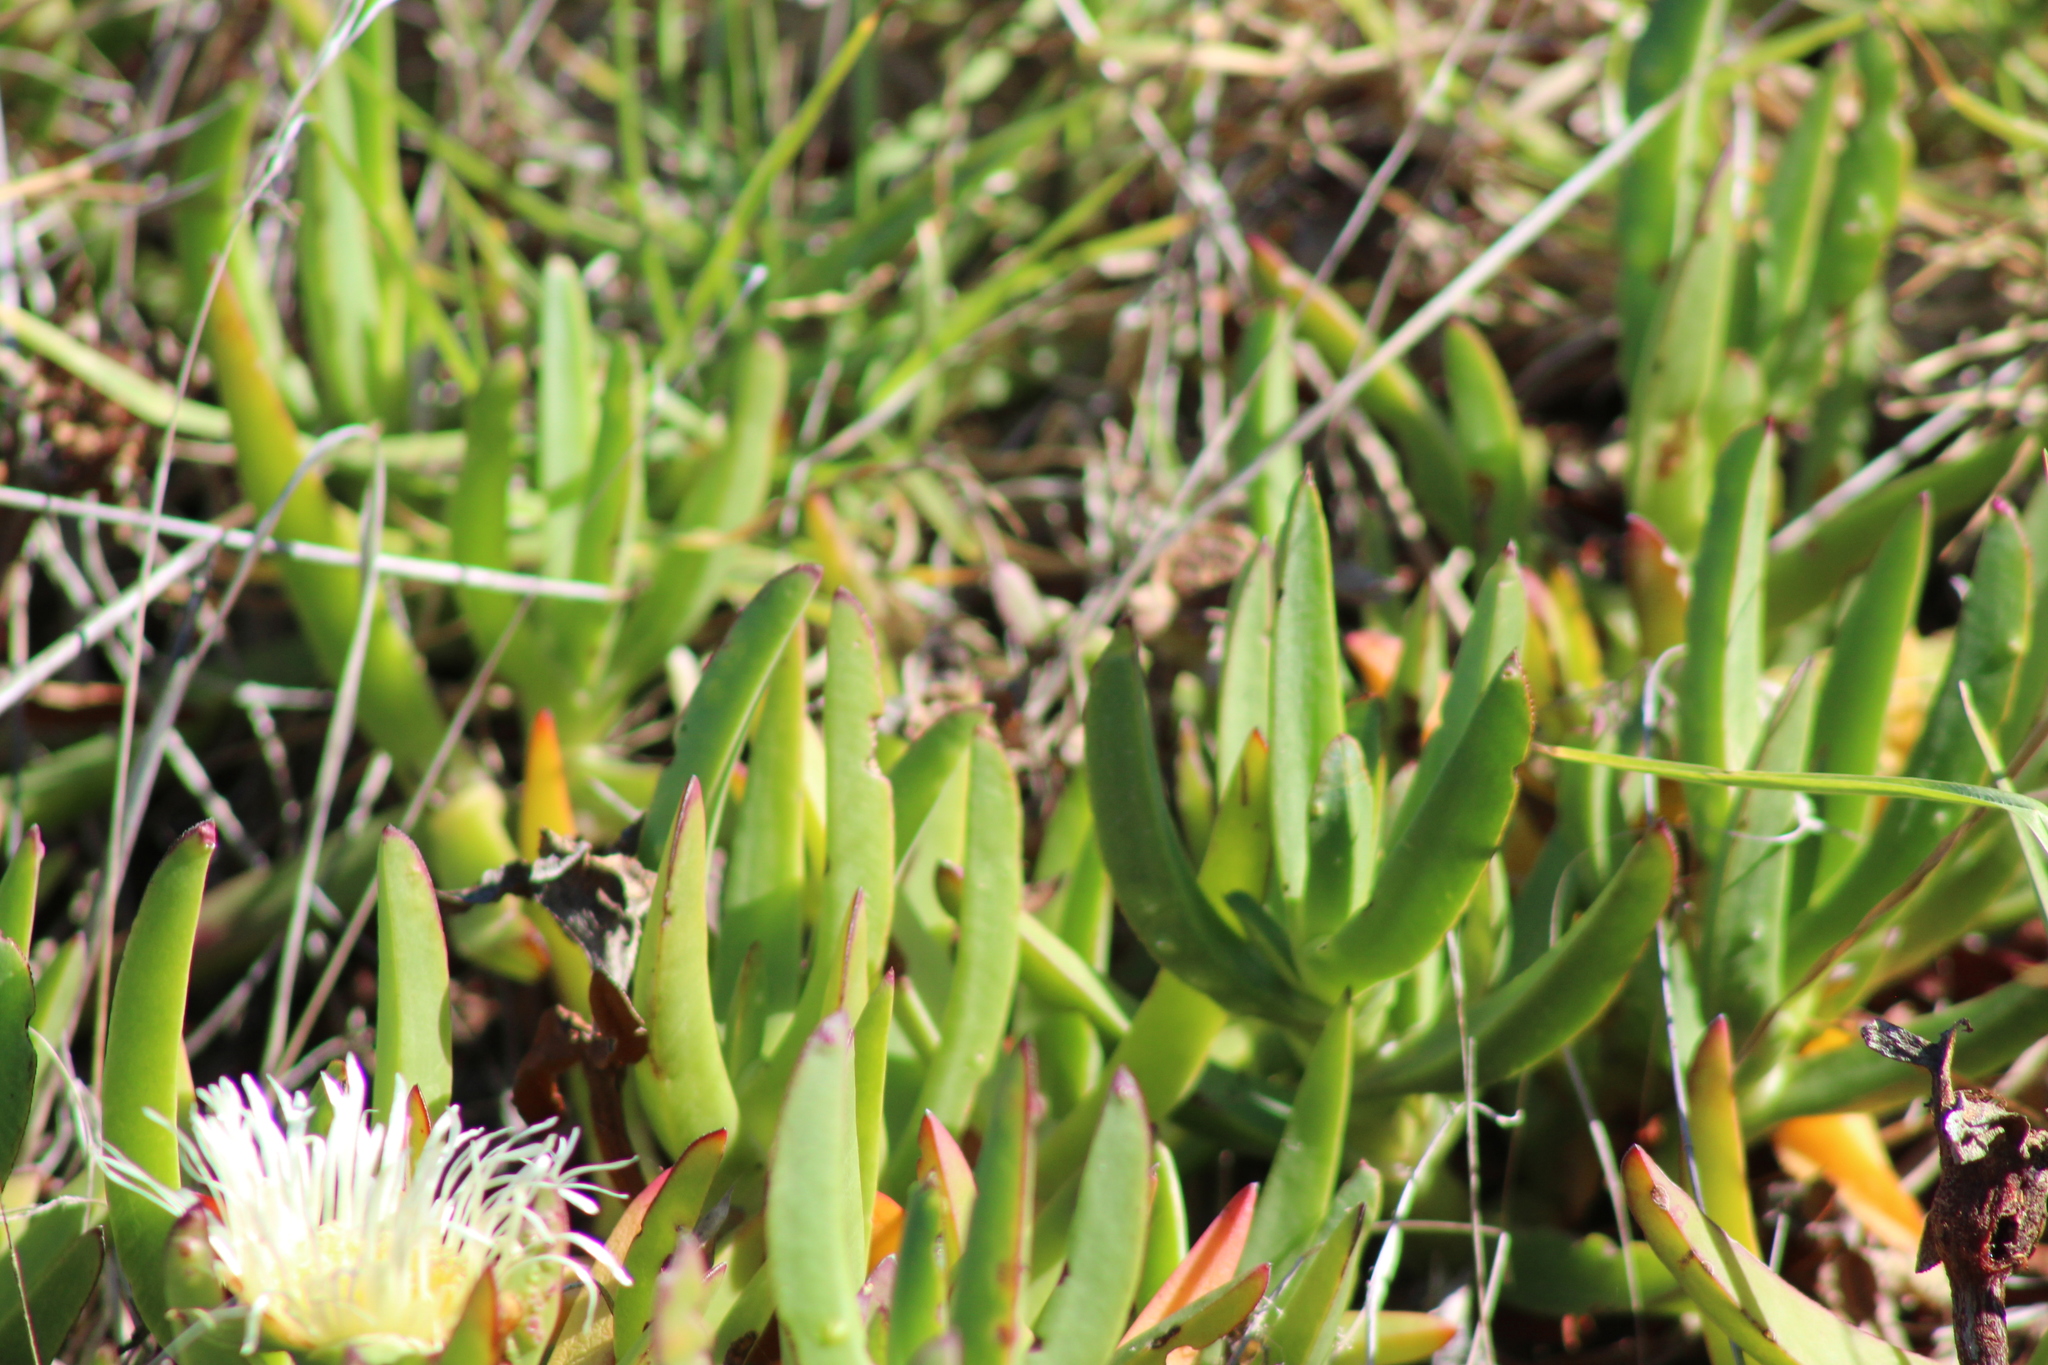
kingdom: Plantae
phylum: Tracheophyta
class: Magnoliopsida
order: Caryophyllales
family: Aizoaceae
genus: Carpobrotus
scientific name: Carpobrotus edulis
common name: Hottentot-fig
